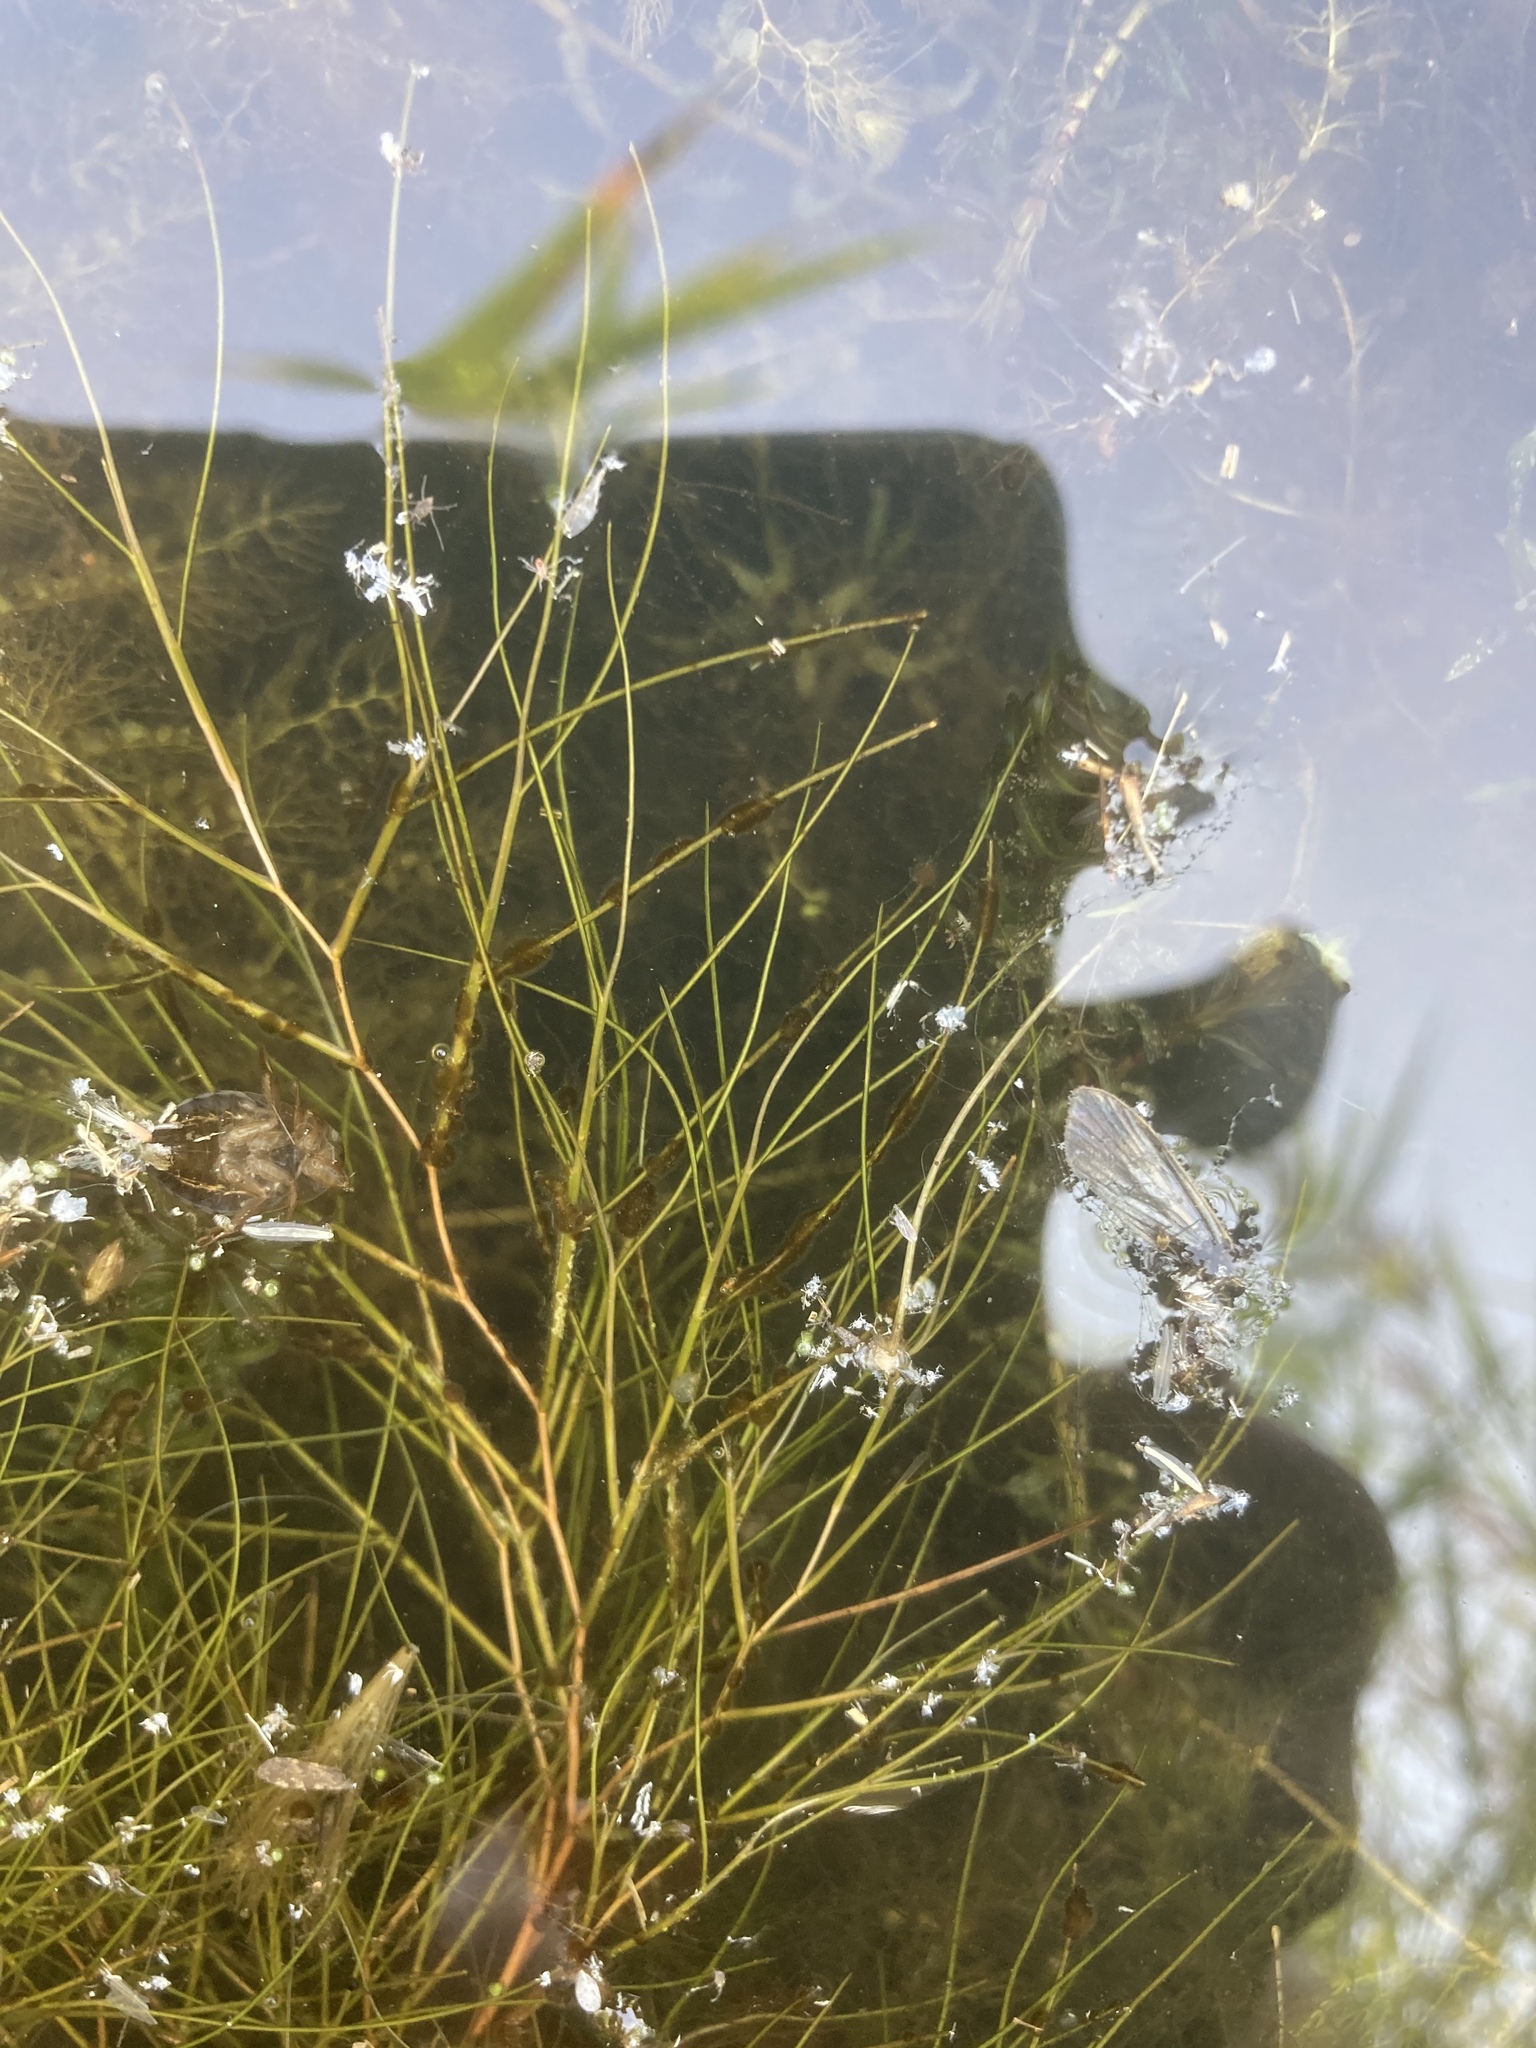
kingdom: Plantae
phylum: Tracheophyta
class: Liliopsida
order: Alismatales
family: Potamogetonaceae
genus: Stuckenia
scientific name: Stuckenia pectinata
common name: Sago pondweed
